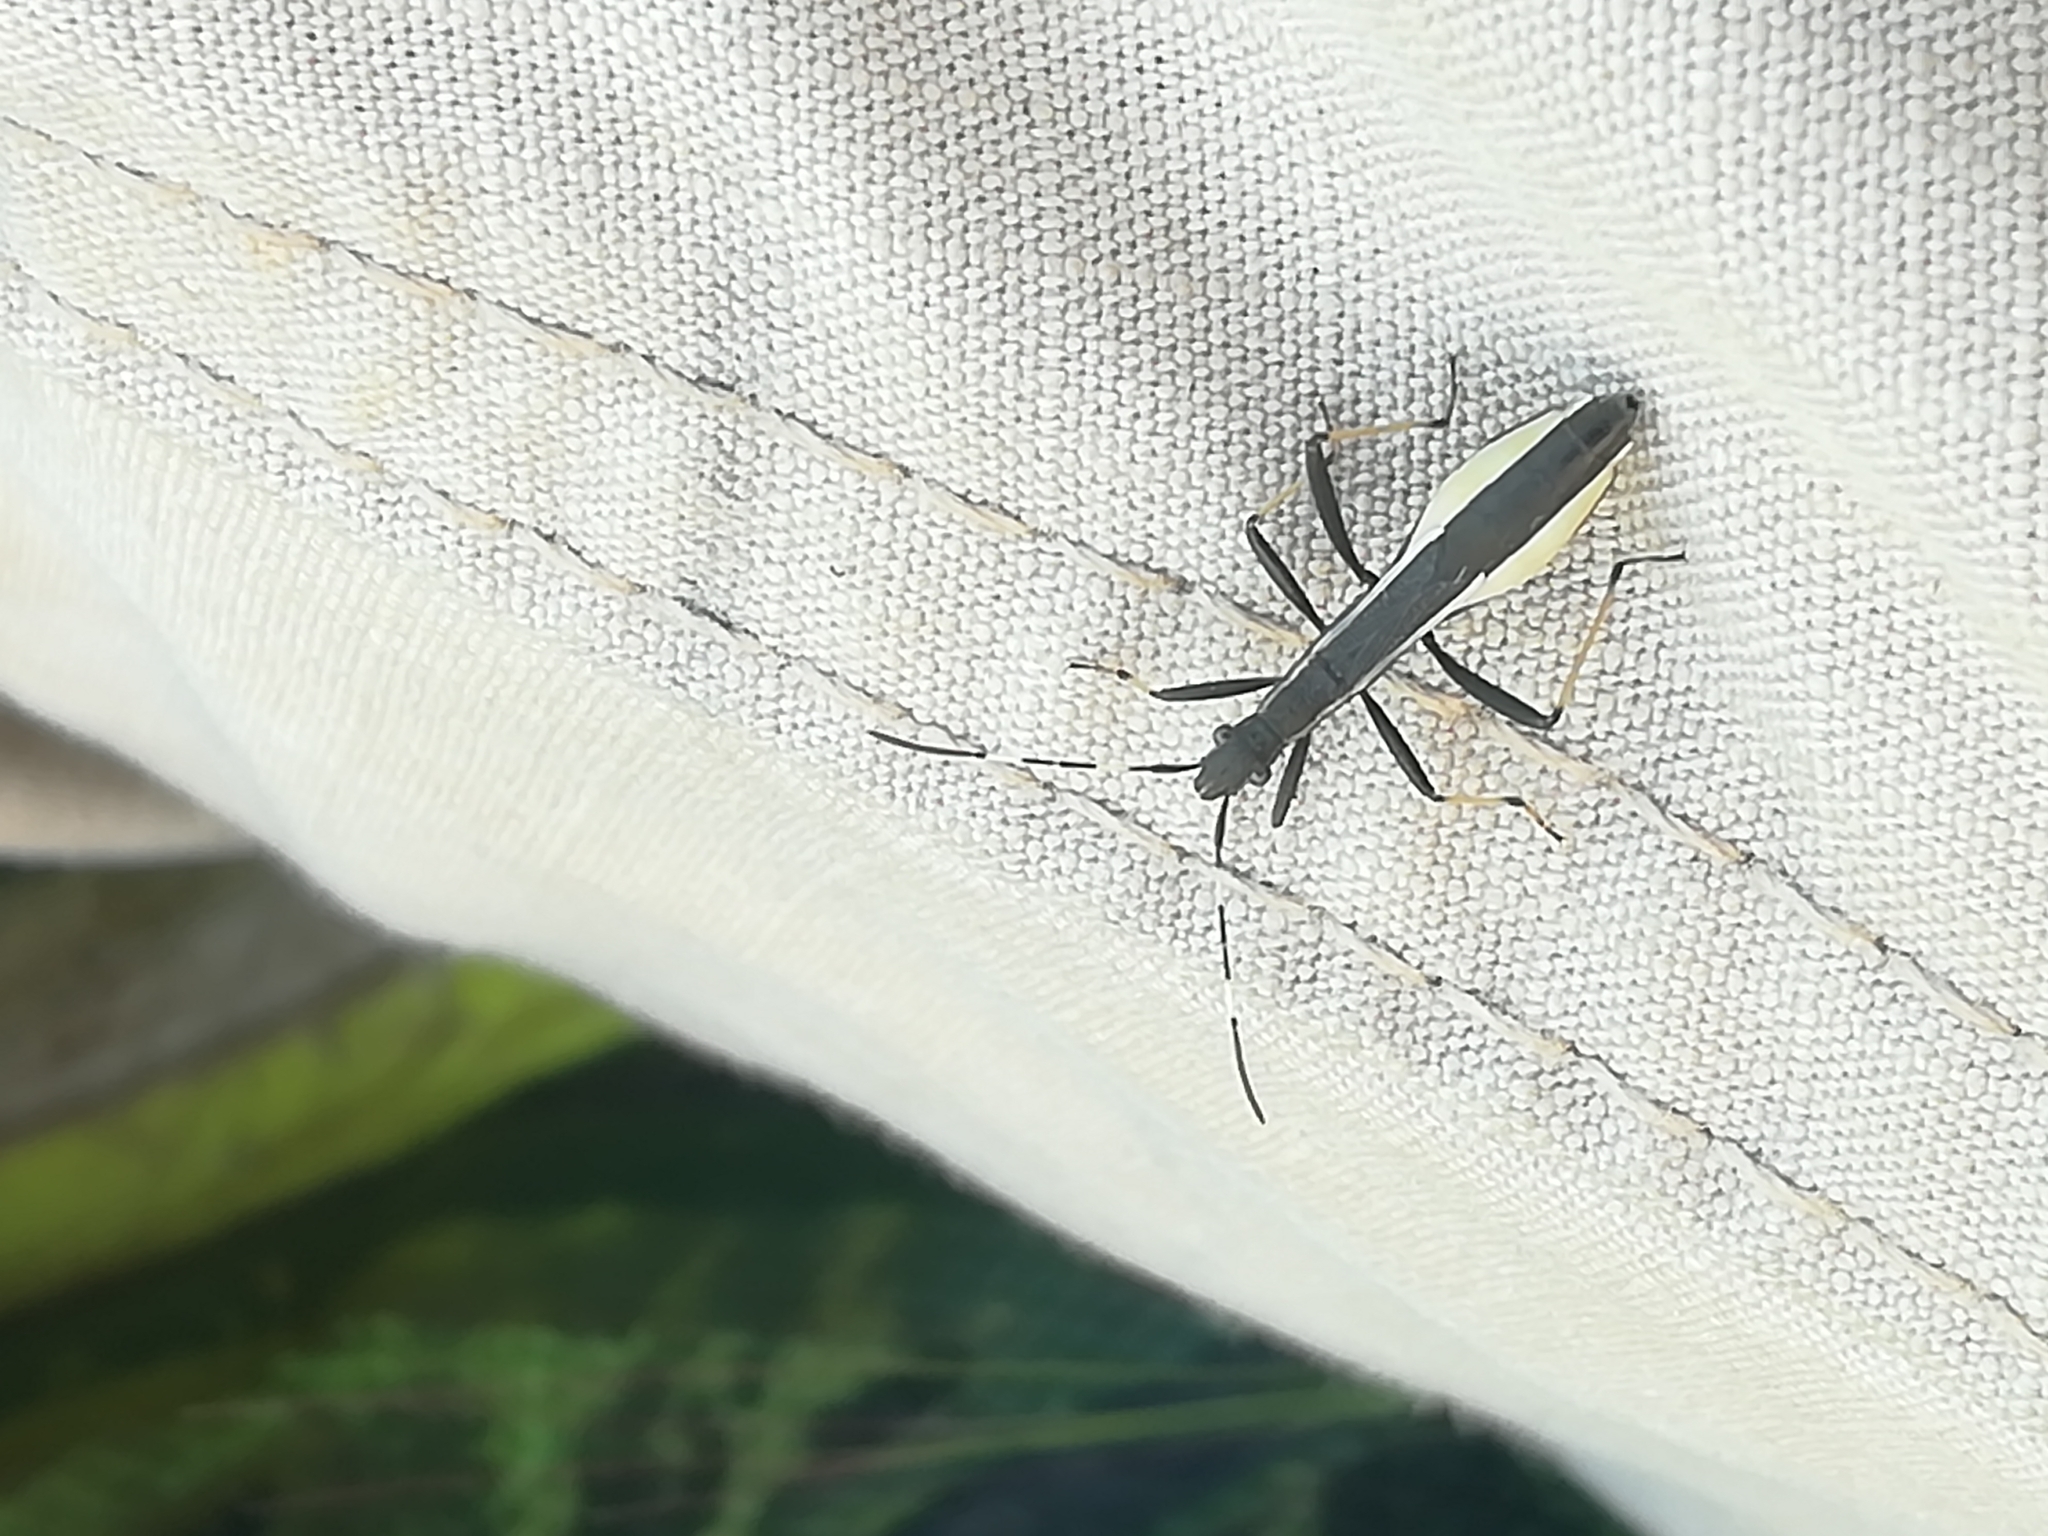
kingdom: Animalia
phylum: Arthropoda
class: Insecta
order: Hemiptera
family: Alydidae
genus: Micrelytra
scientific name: Micrelytra fossularum
